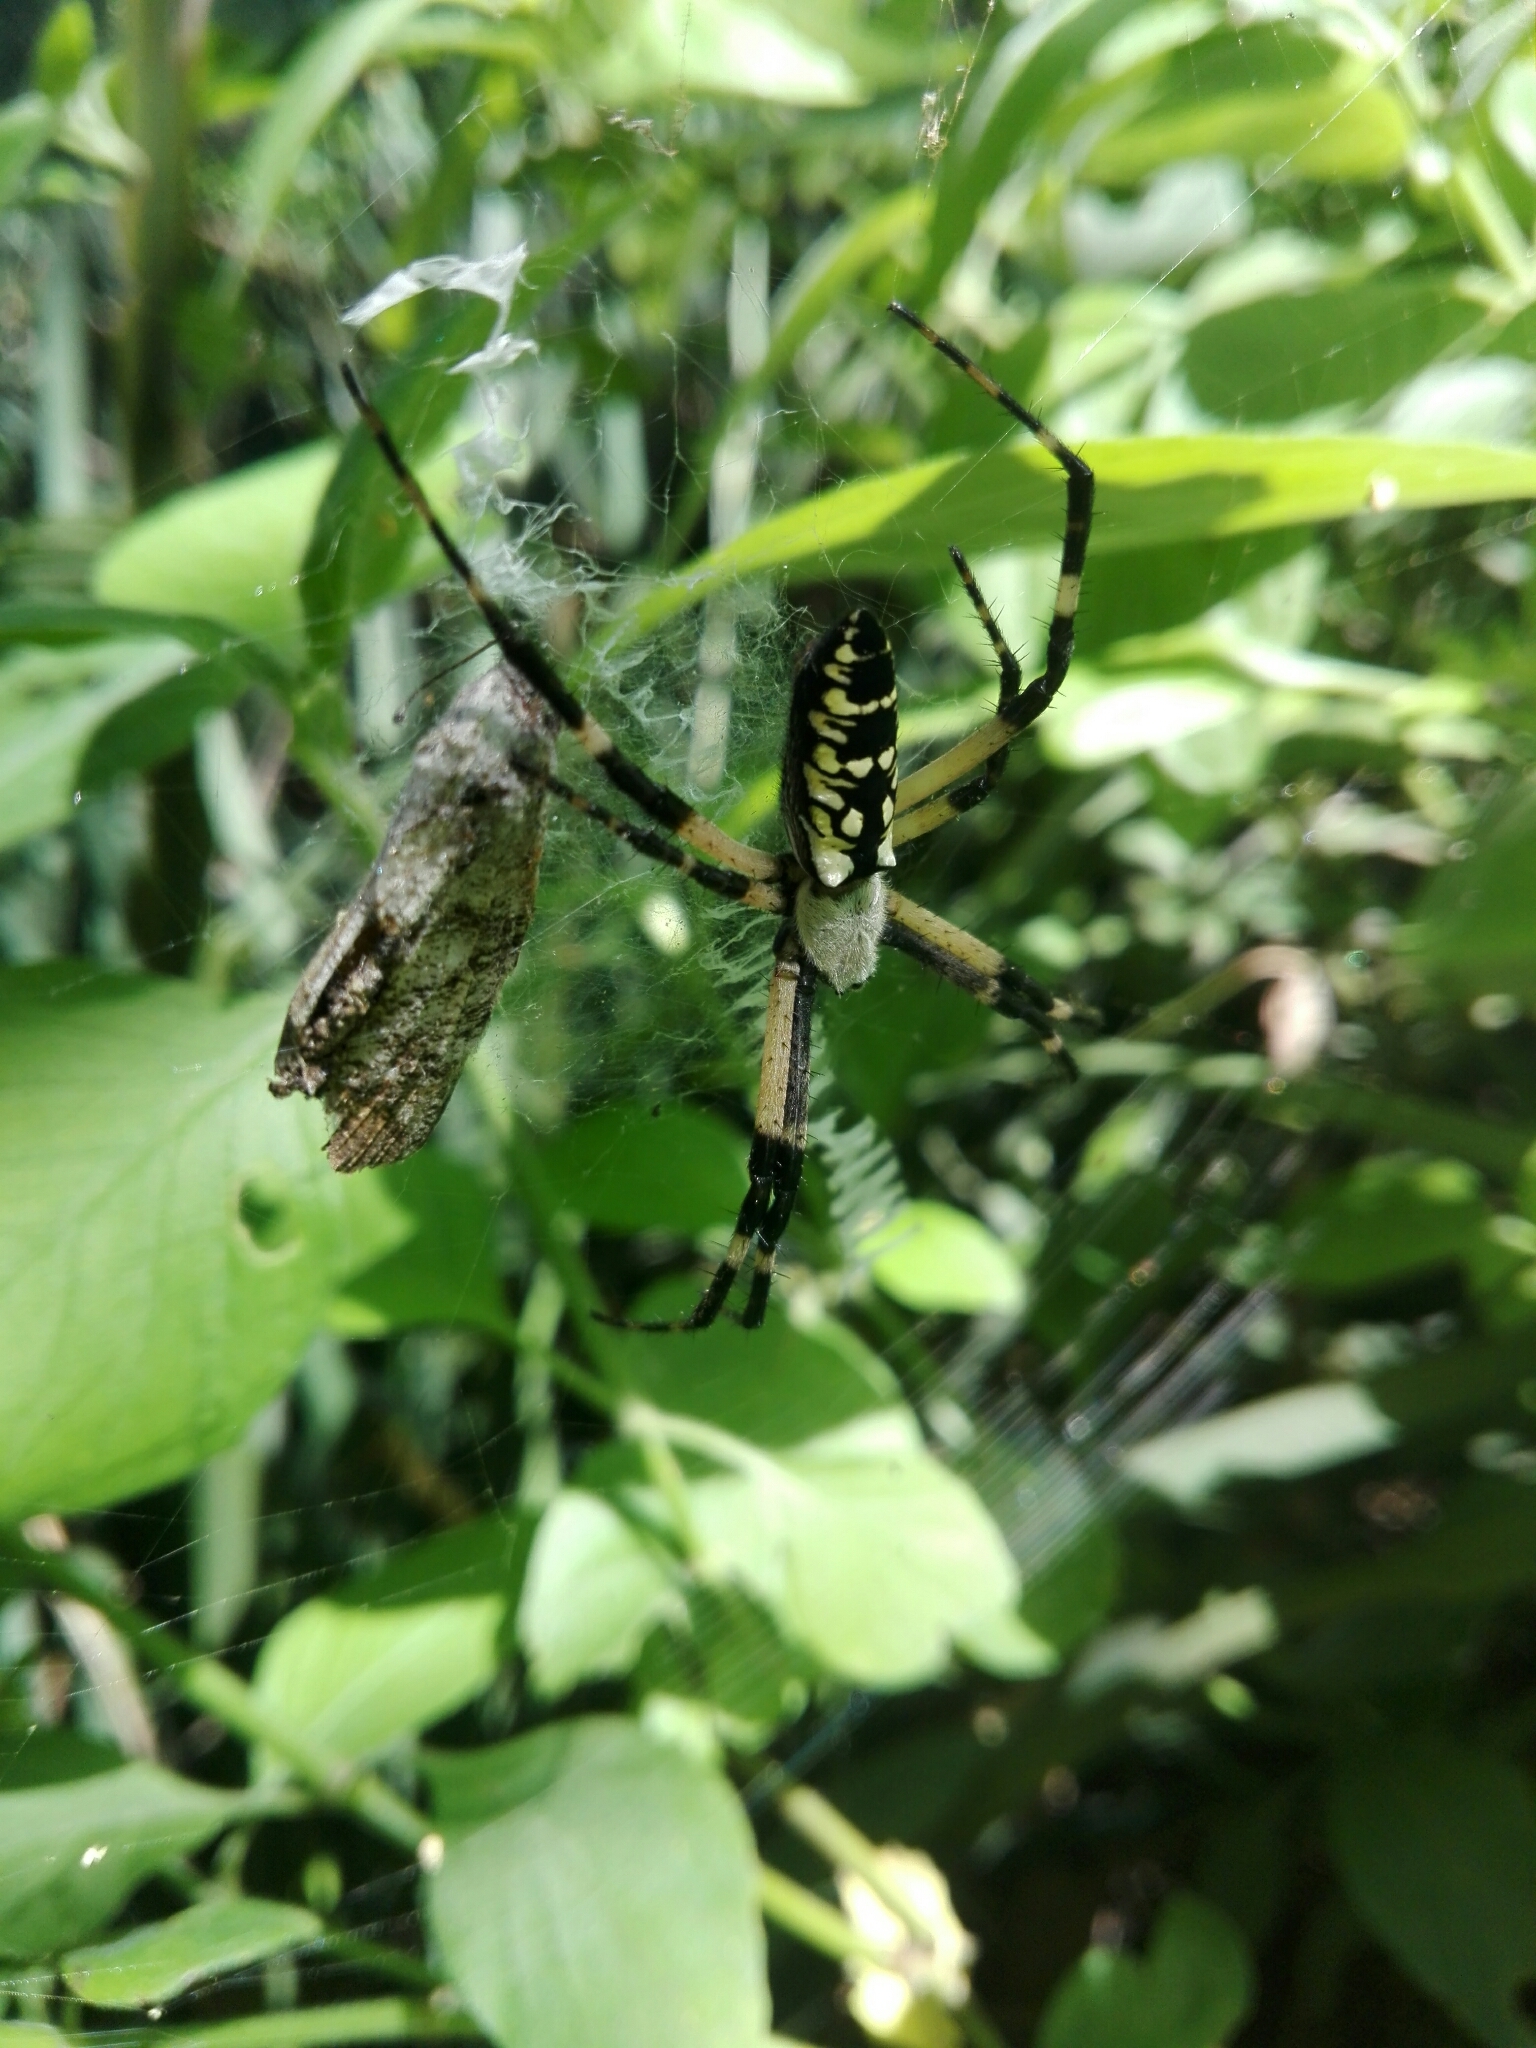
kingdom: Animalia
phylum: Arthropoda
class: Arachnida
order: Araneae
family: Araneidae
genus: Argiope
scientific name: Argiope aurantia
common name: Orb weavers
